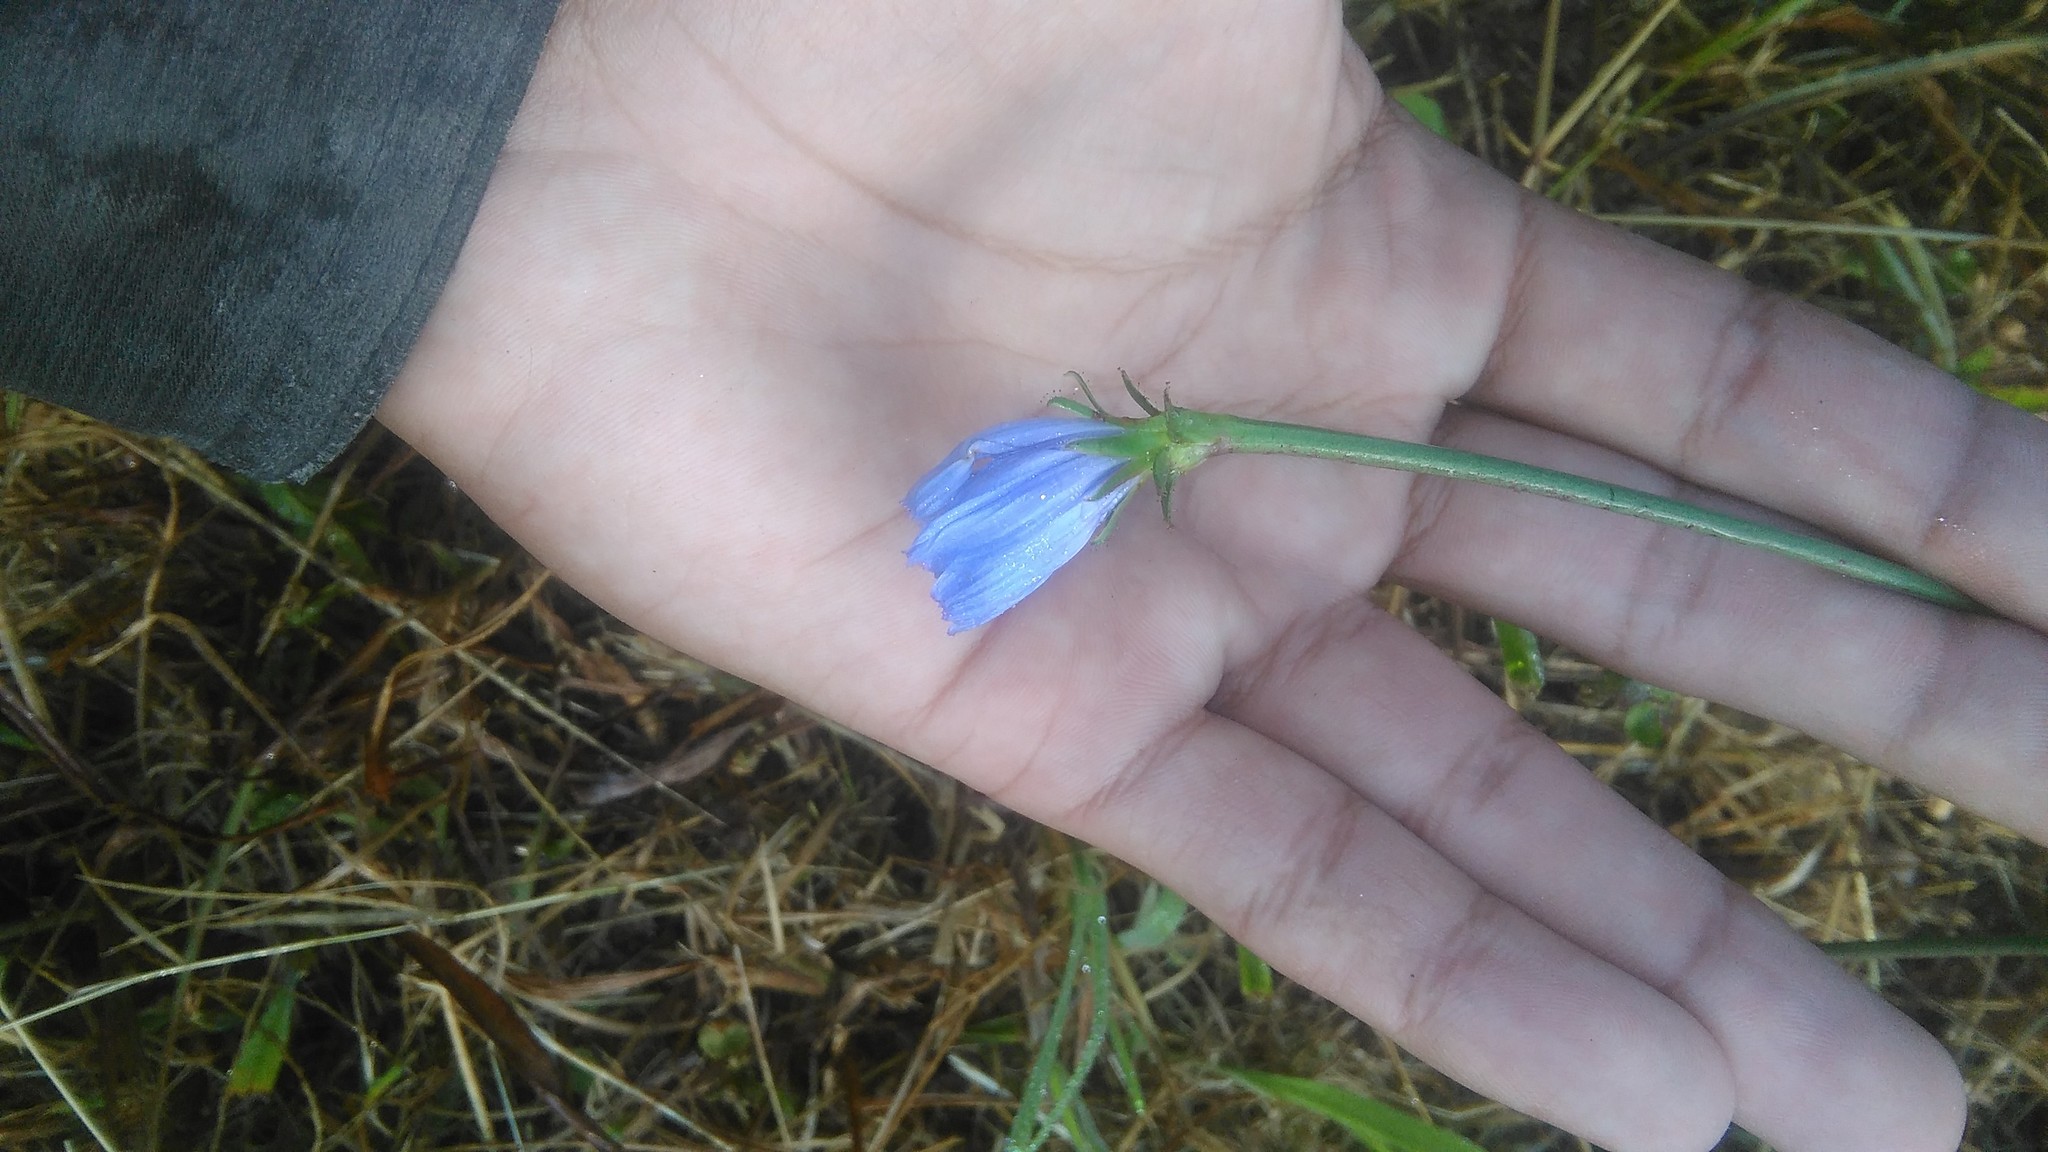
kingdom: Plantae
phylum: Tracheophyta
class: Magnoliopsida
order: Asterales
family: Asteraceae
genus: Cichorium
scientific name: Cichorium intybus
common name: Chicory
